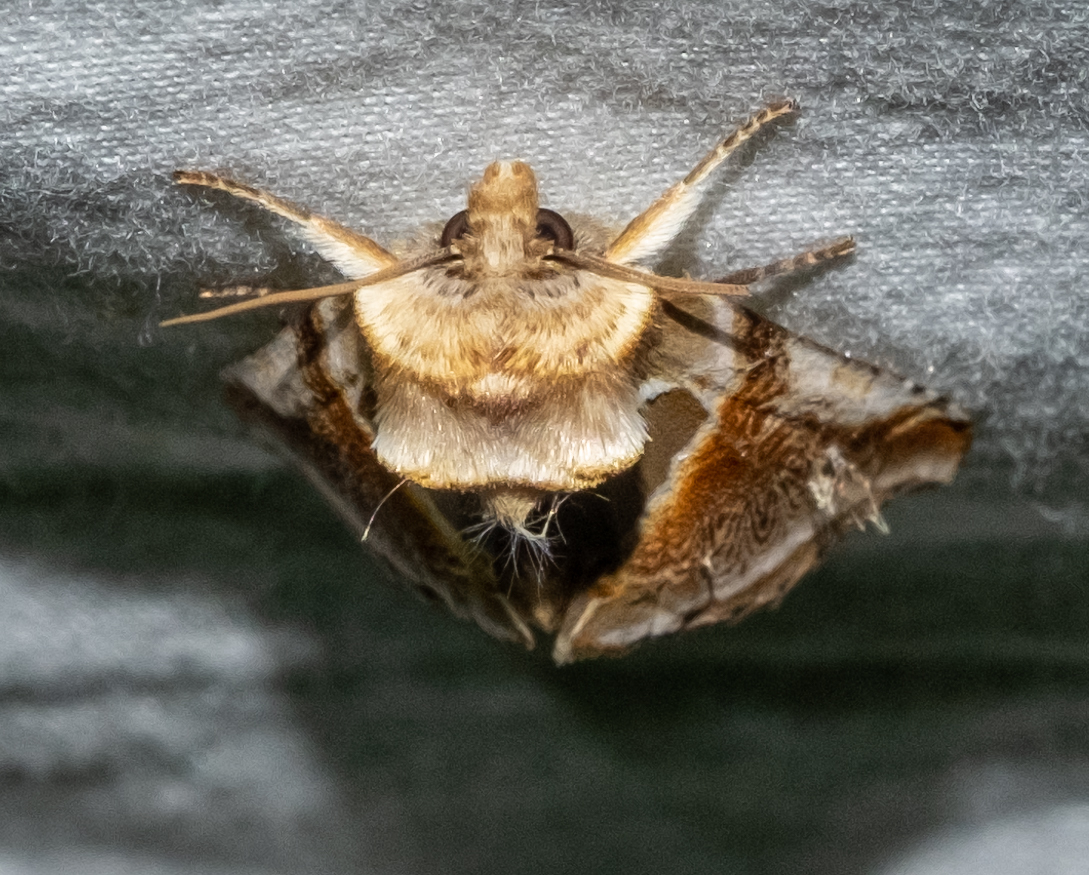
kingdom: Animalia
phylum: Arthropoda
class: Insecta
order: Lepidoptera
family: Drepanidae
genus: Habrosyne
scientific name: Habrosyne pyritoides
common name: Buff arches
